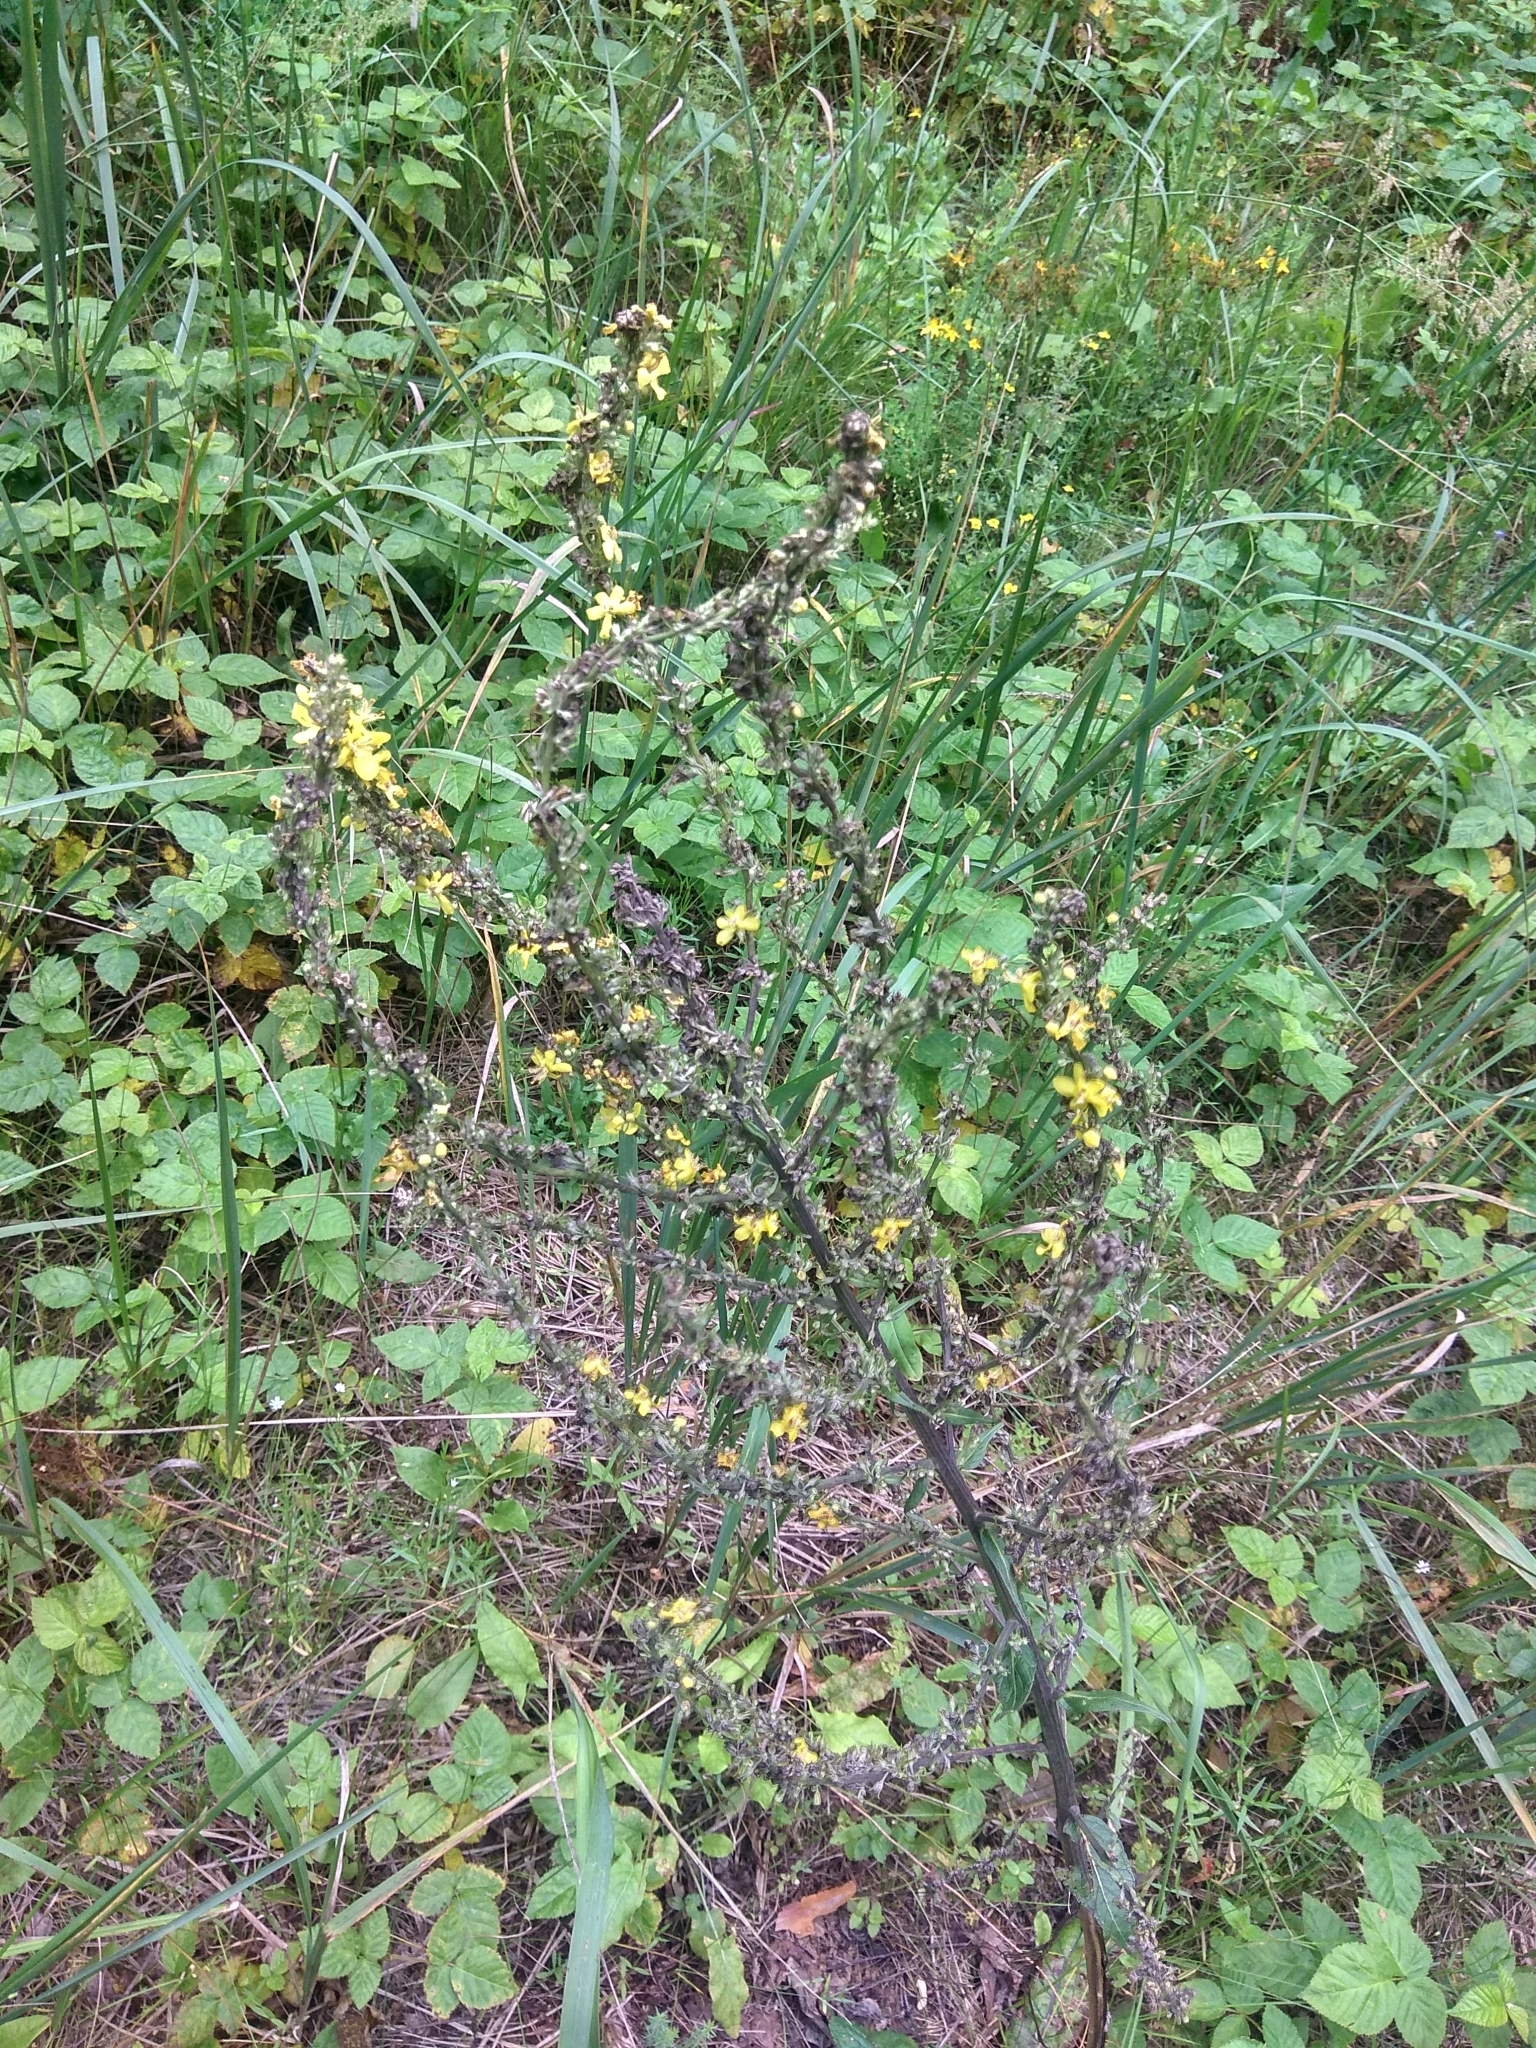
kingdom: Plantae
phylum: Tracheophyta
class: Magnoliopsida
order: Lamiales
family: Scrophulariaceae
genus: Verbascum
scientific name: Verbascum lychnitis
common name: White mullein
